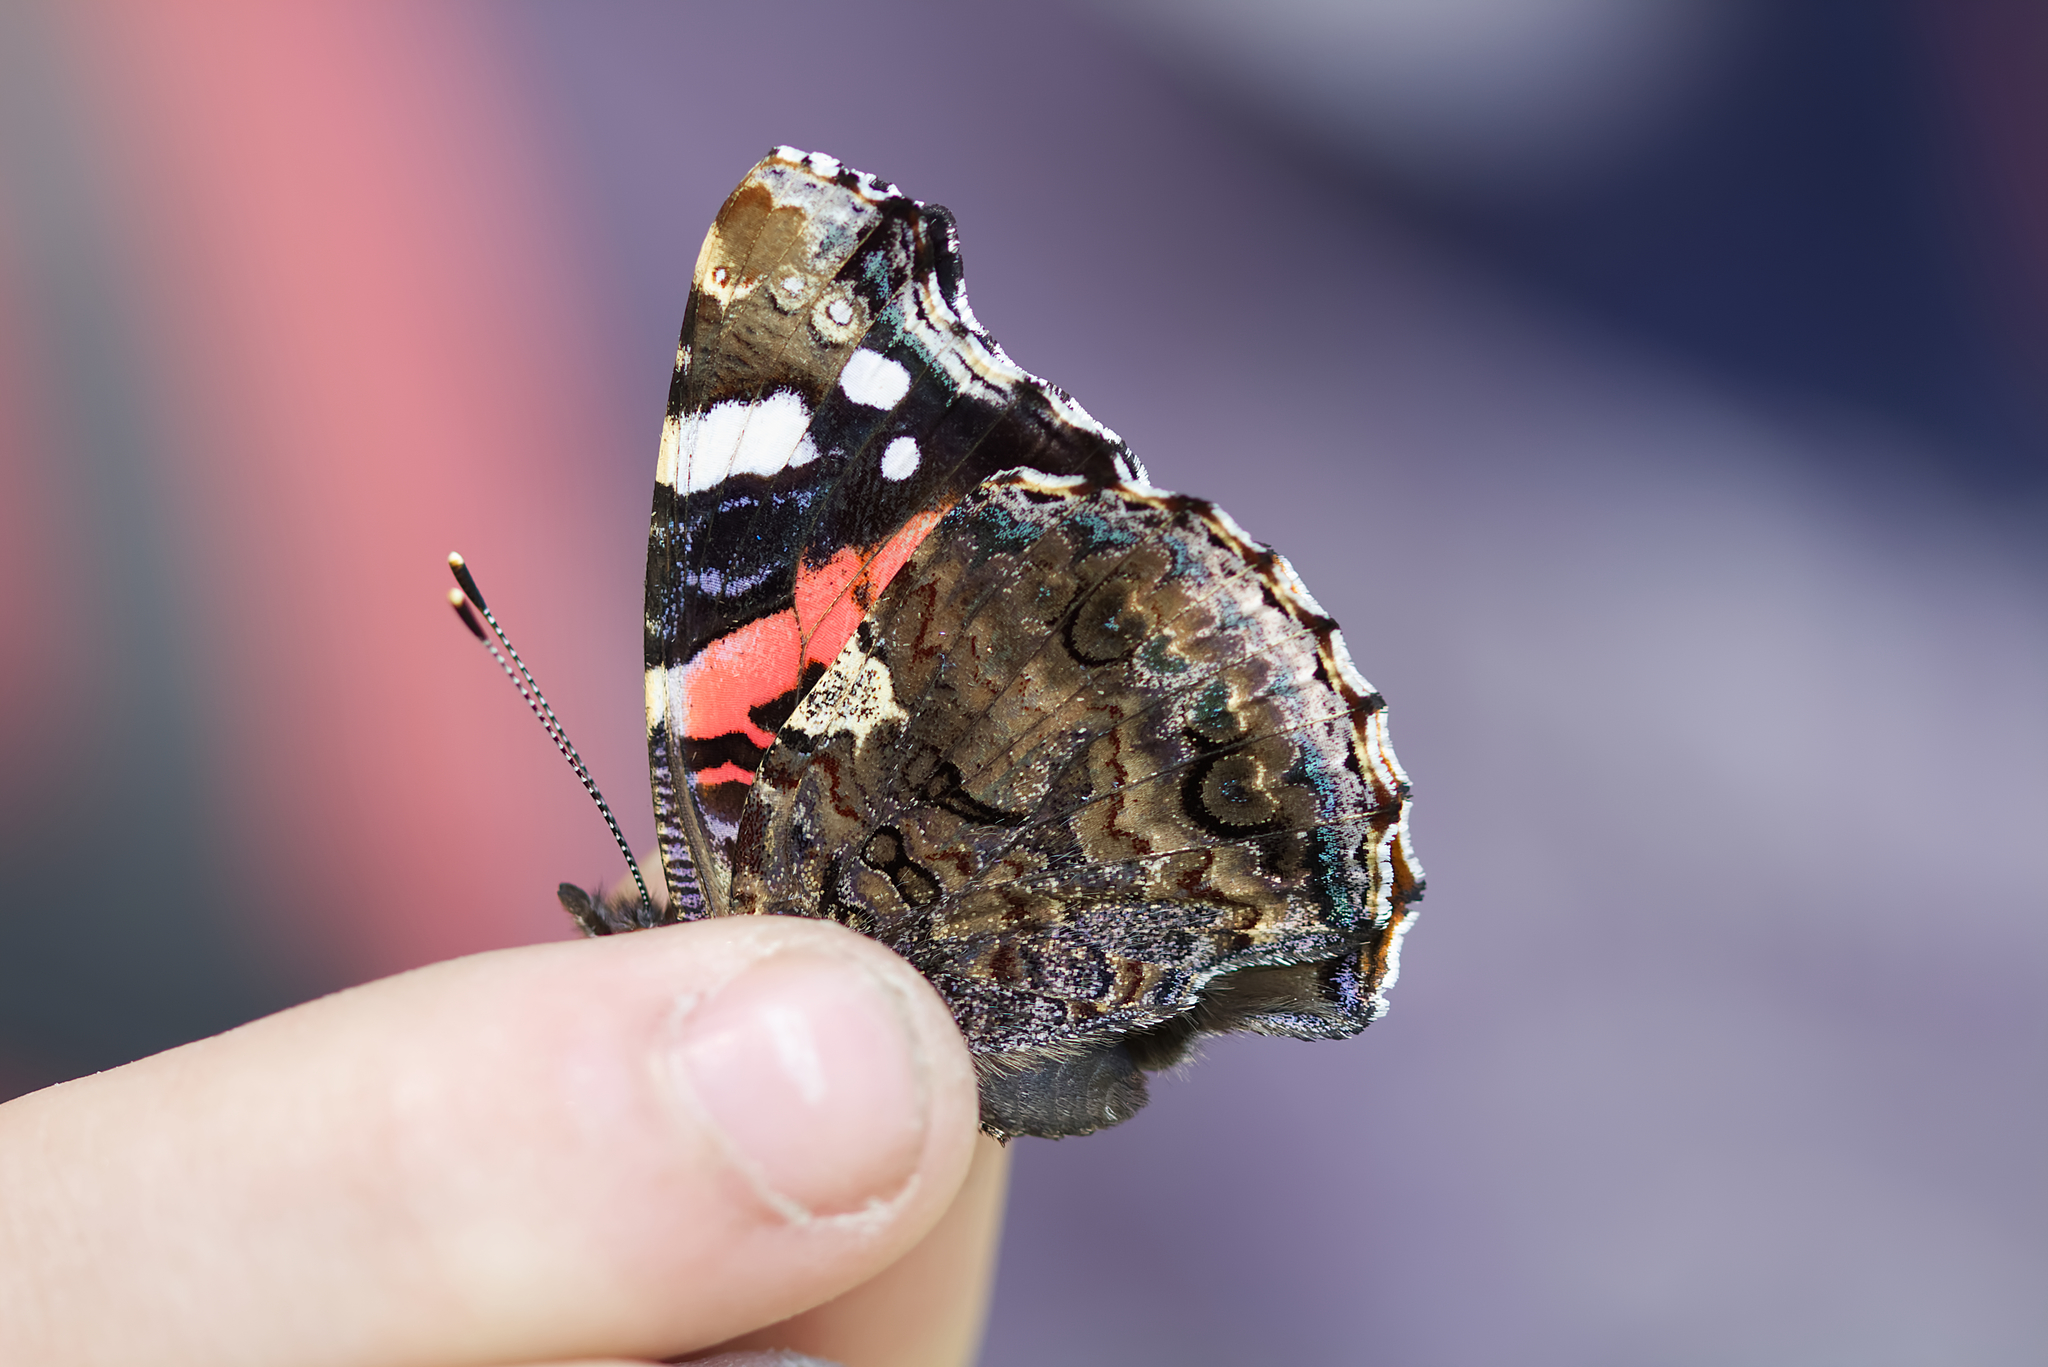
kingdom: Animalia
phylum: Arthropoda
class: Insecta
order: Lepidoptera
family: Nymphalidae
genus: Vanessa
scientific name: Vanessa atalanta
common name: Red admiral
